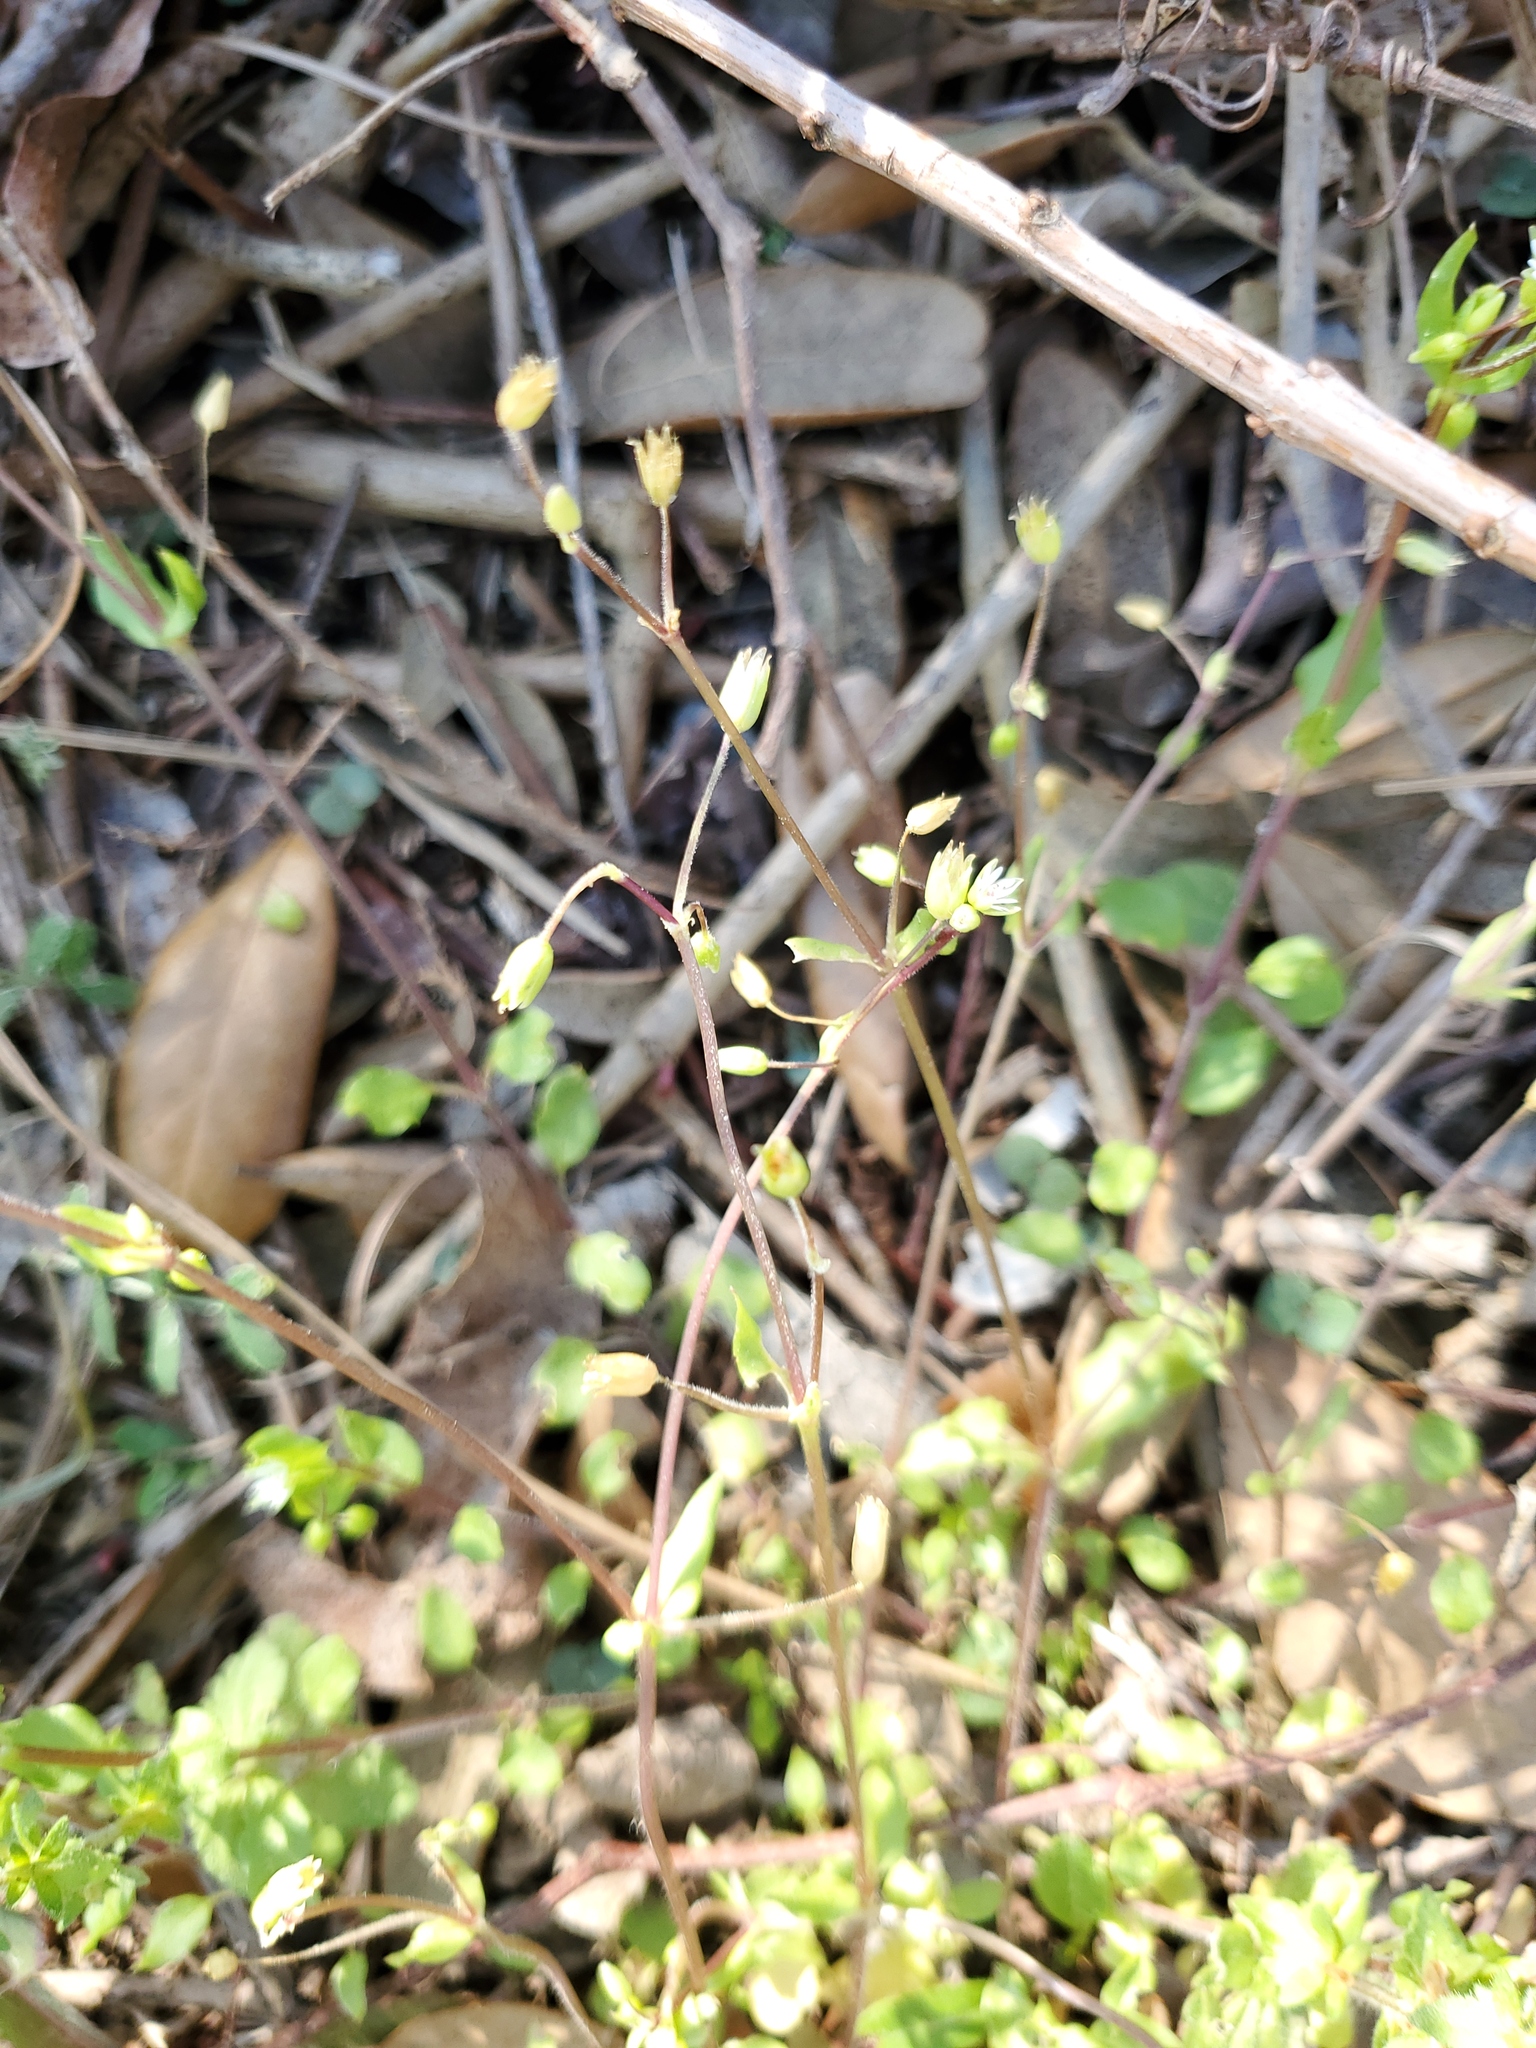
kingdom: Plantae
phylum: Tracheophyta
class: Magnoliopsida
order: Caryophyllales
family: Caryophyllaceae
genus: Stellaria
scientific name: Stellaria media
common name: Common chickweed
